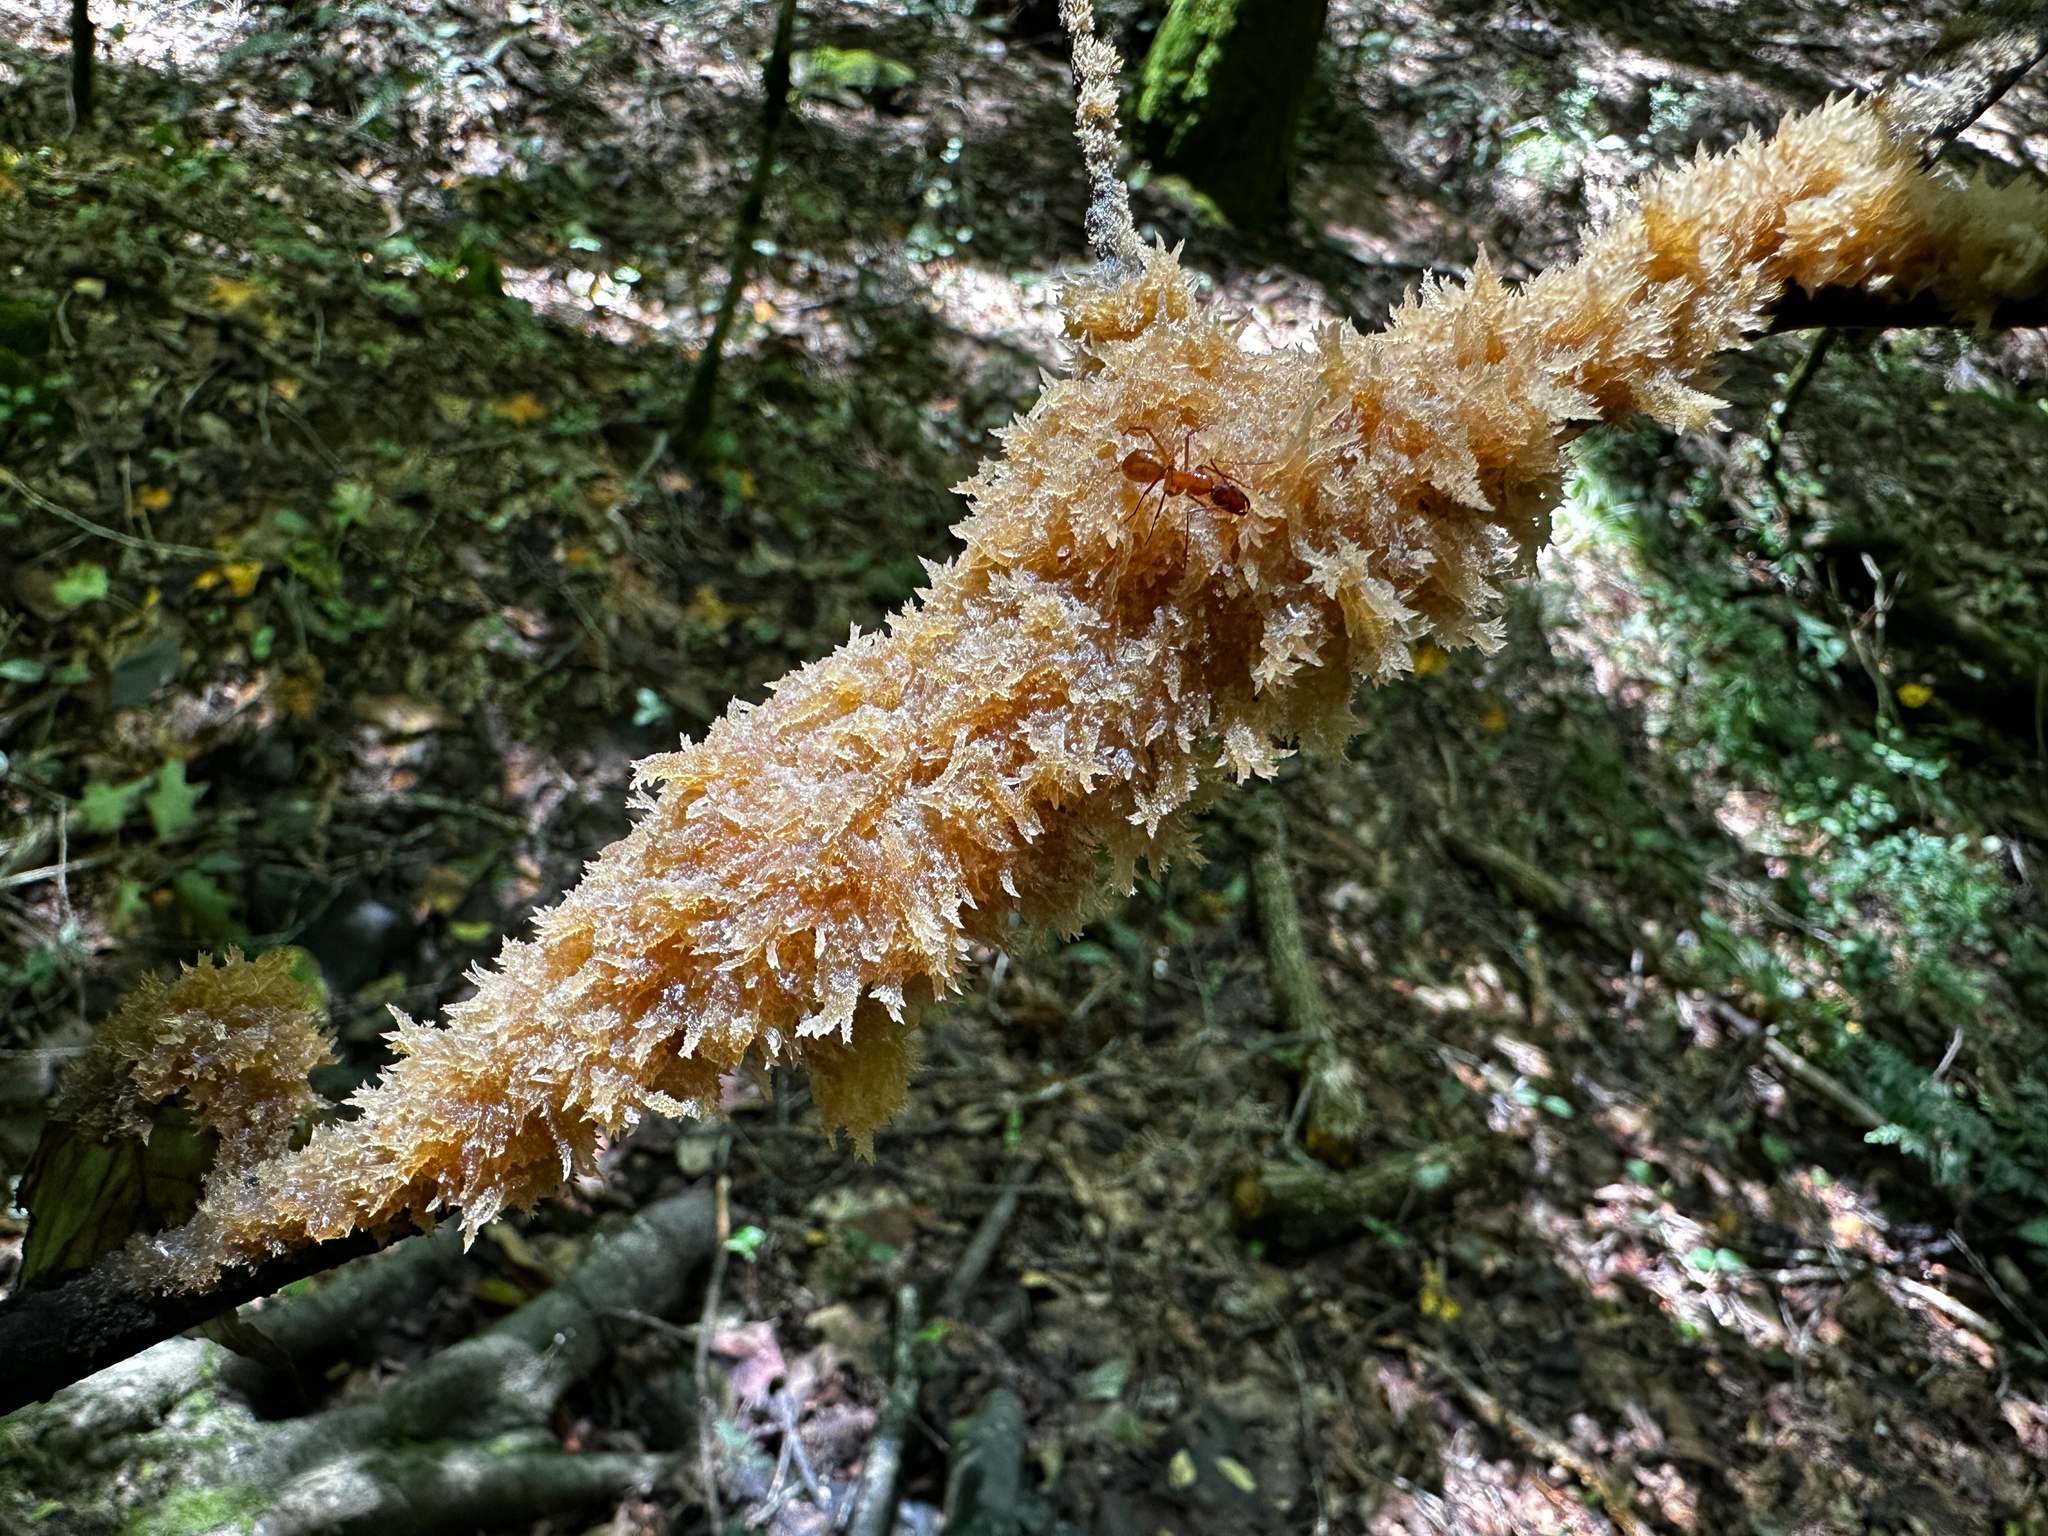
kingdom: Fungi
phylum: Ascomycota
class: Dothideomycetes
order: Capnodiales
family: Capnodiaceae
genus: Scorias
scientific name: Scorias spongiosa
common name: Black sooty mold
